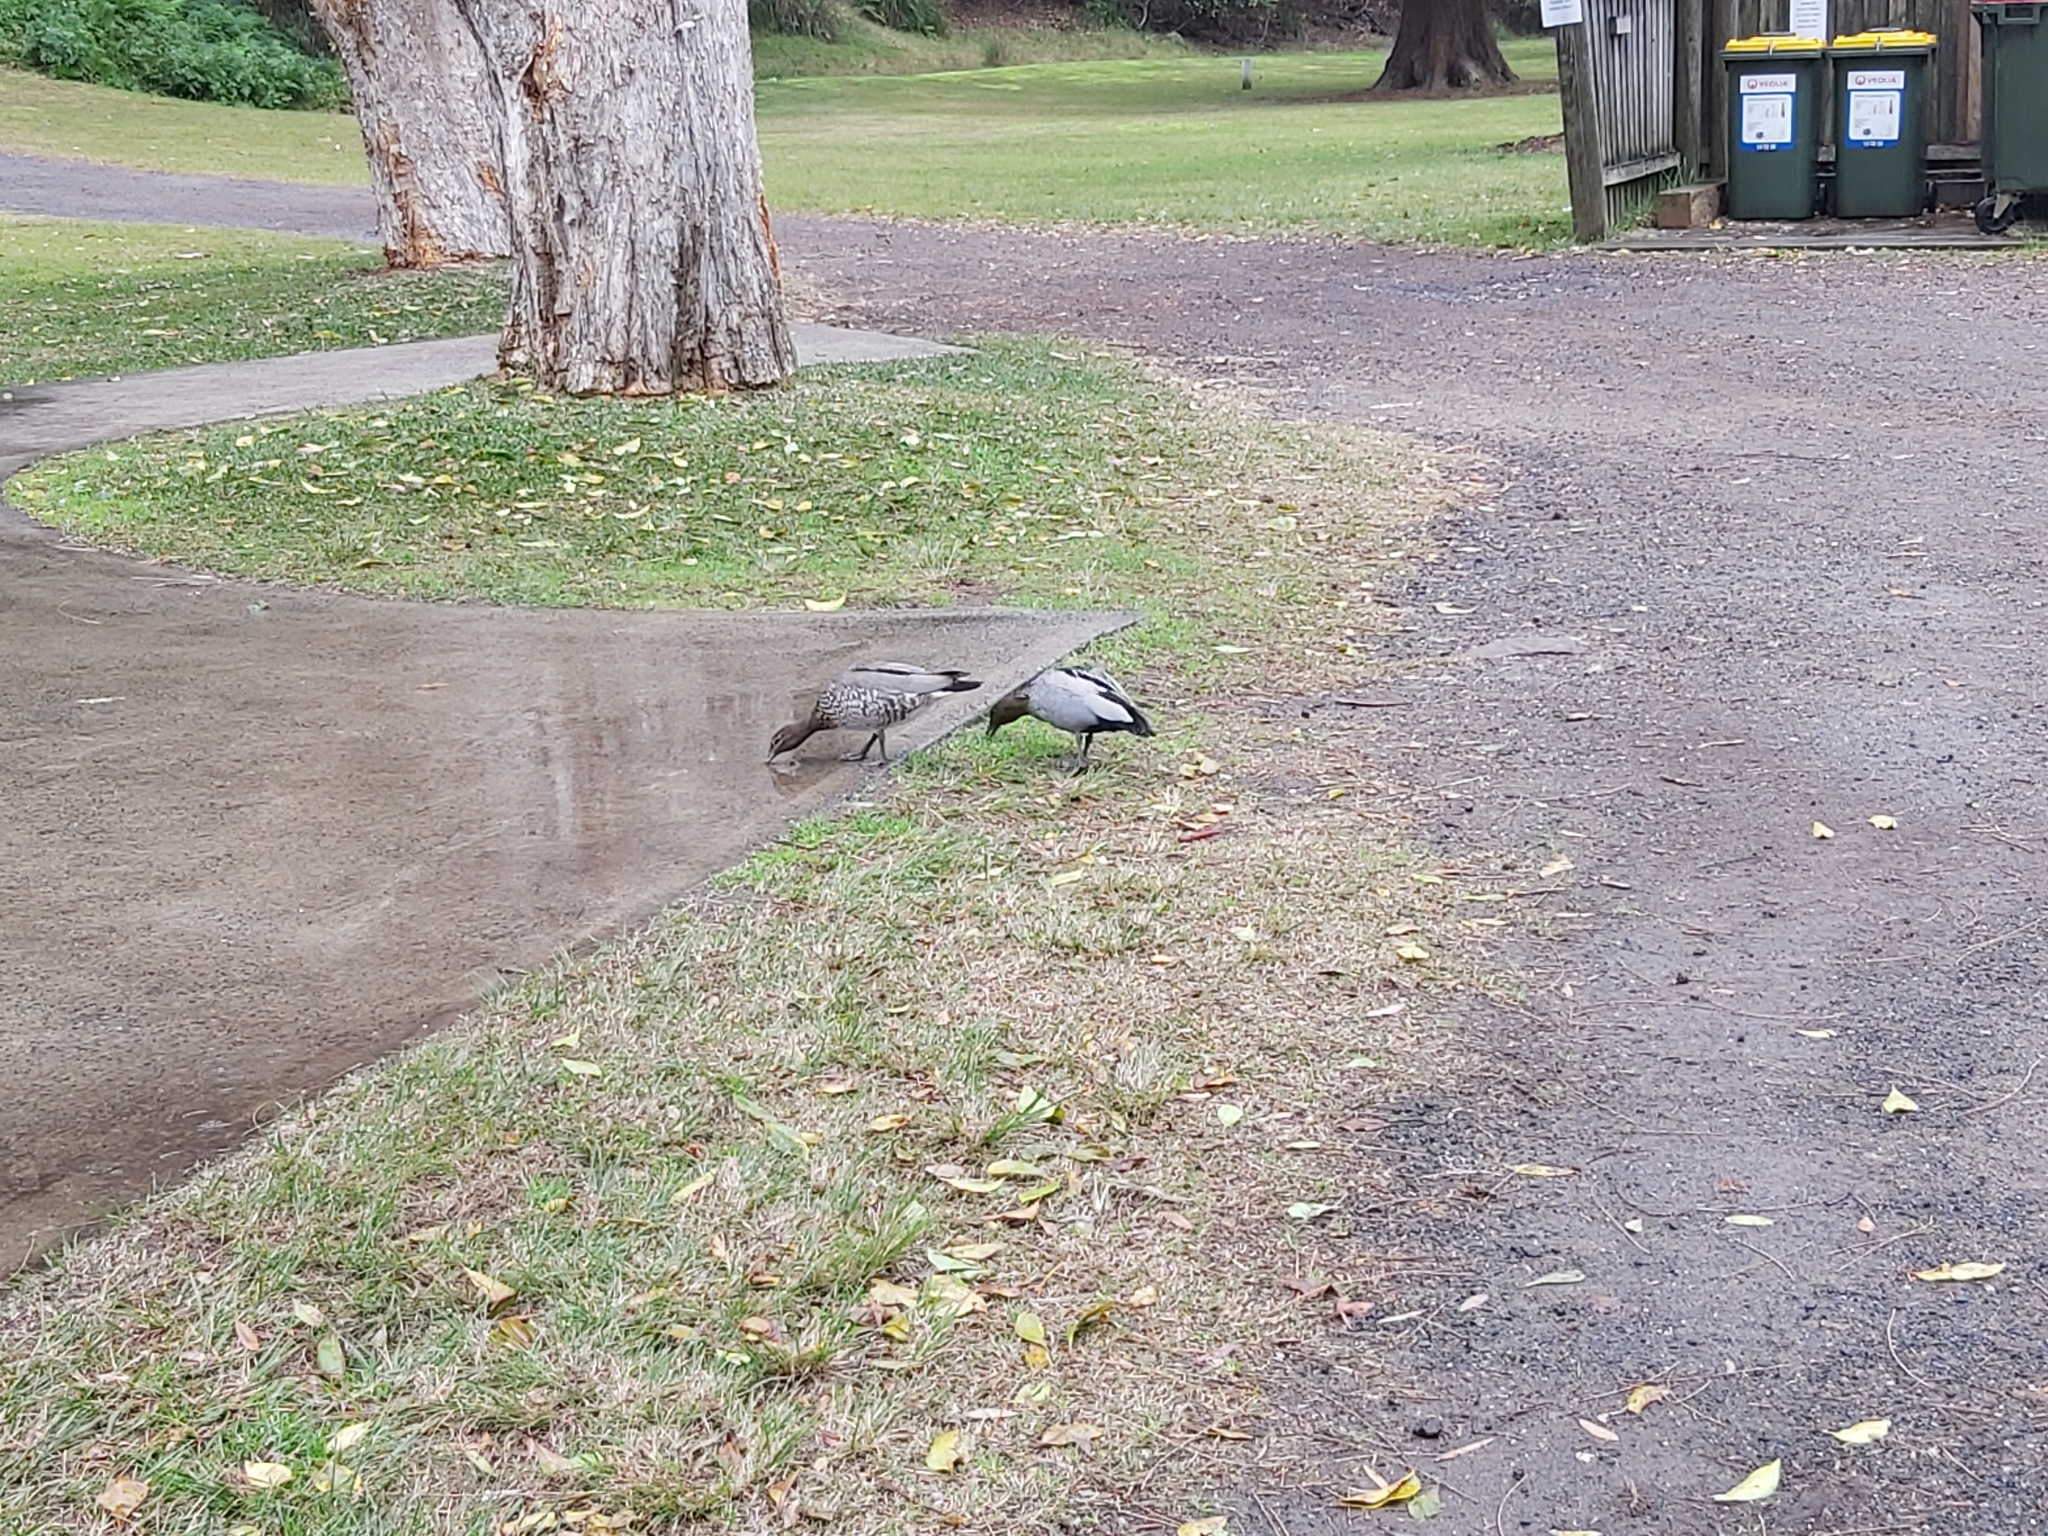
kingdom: Animalia
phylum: Chordata
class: Aves
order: Anseriformes
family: Anatidae
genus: Chenonetta
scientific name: Chenonetta jubata
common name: Maned duck
